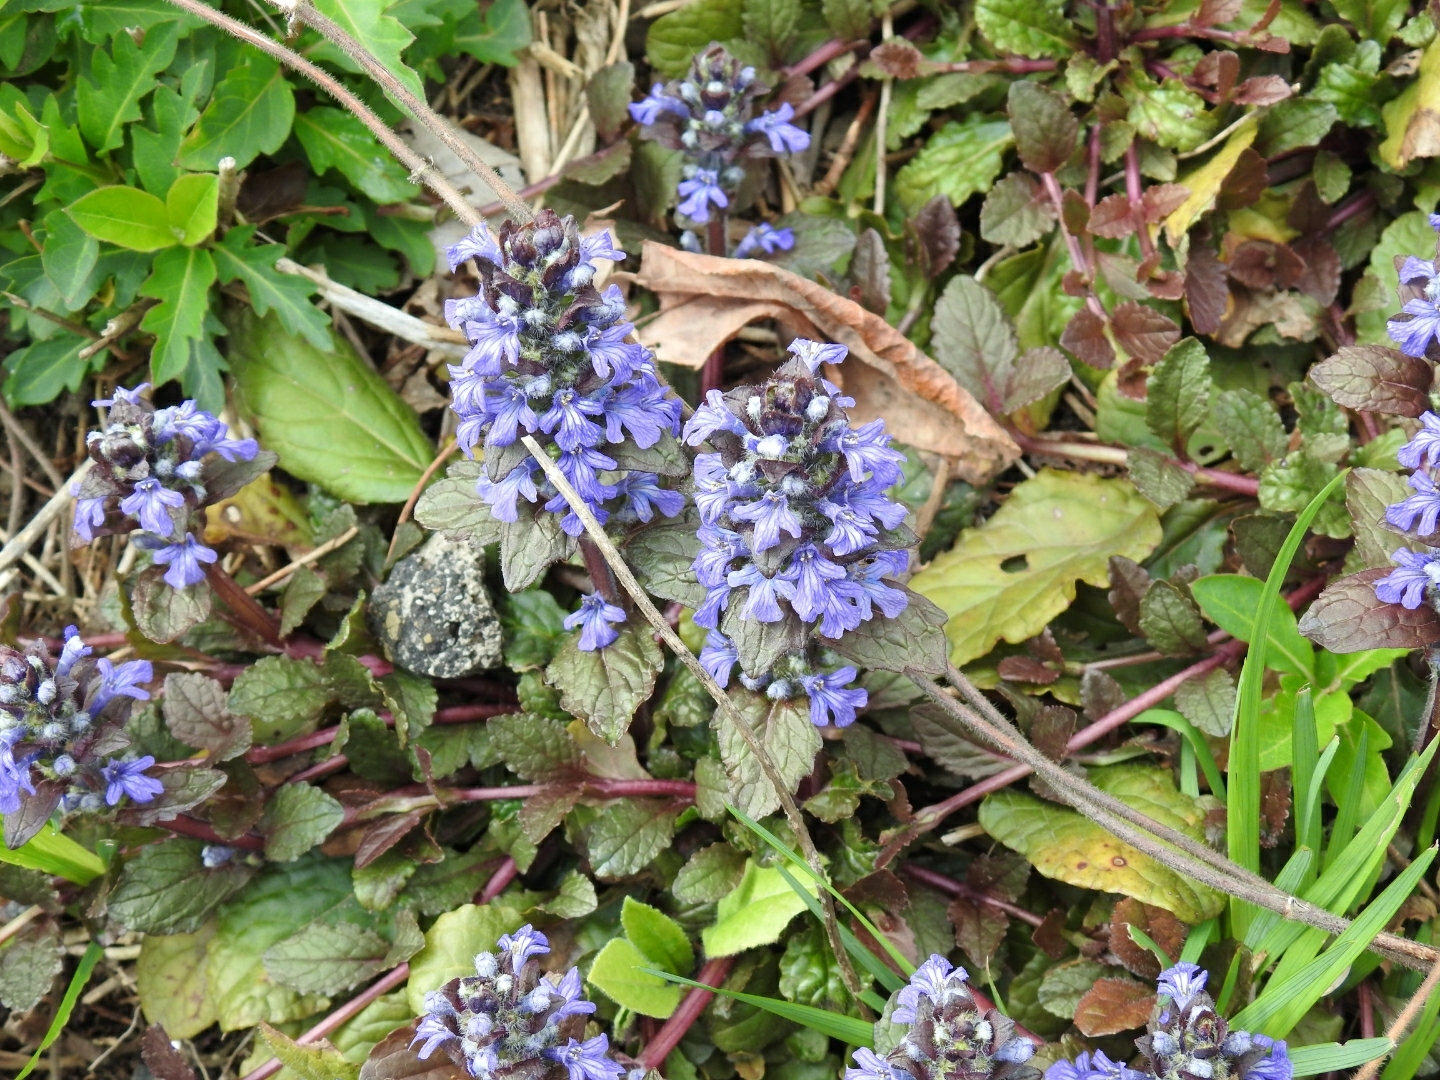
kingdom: Plantae
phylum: Tracheophyta
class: Magnoliopsida
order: Lamiales
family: Lamiaceae
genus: Ajuga
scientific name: Ajuga reptans
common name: Bugle
